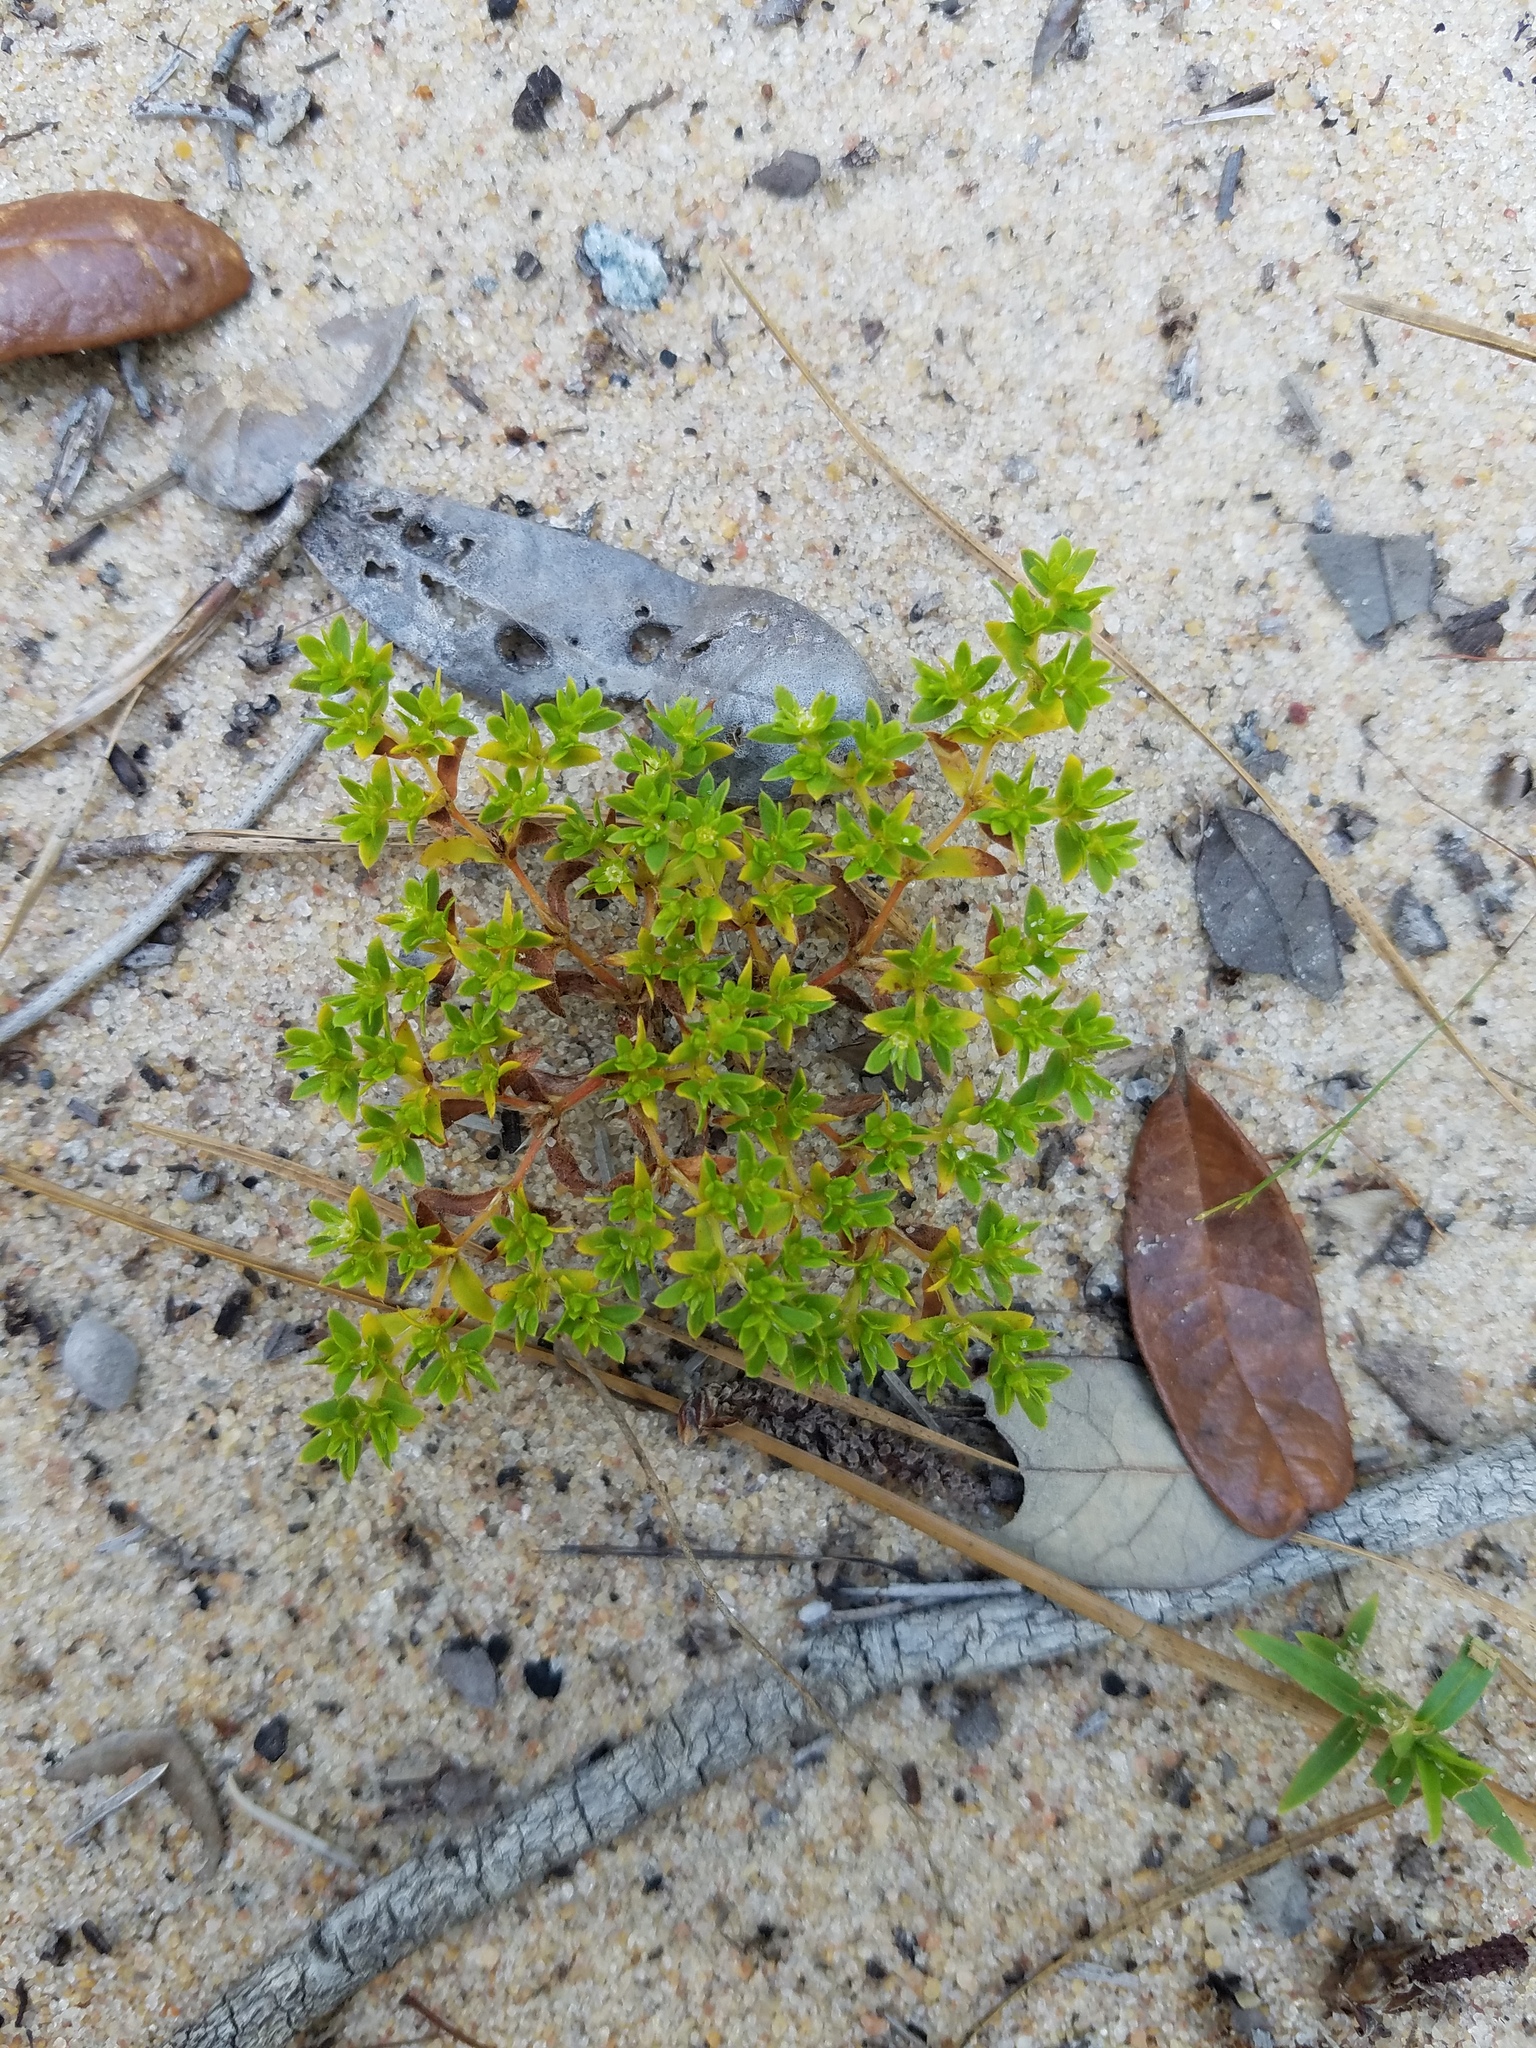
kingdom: Plantae
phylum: Tracheophyta
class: Magnoliopsida
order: Caryophyllales
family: Caryophyllaceae
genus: Paronychia
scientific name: Paronychia herniarioides
